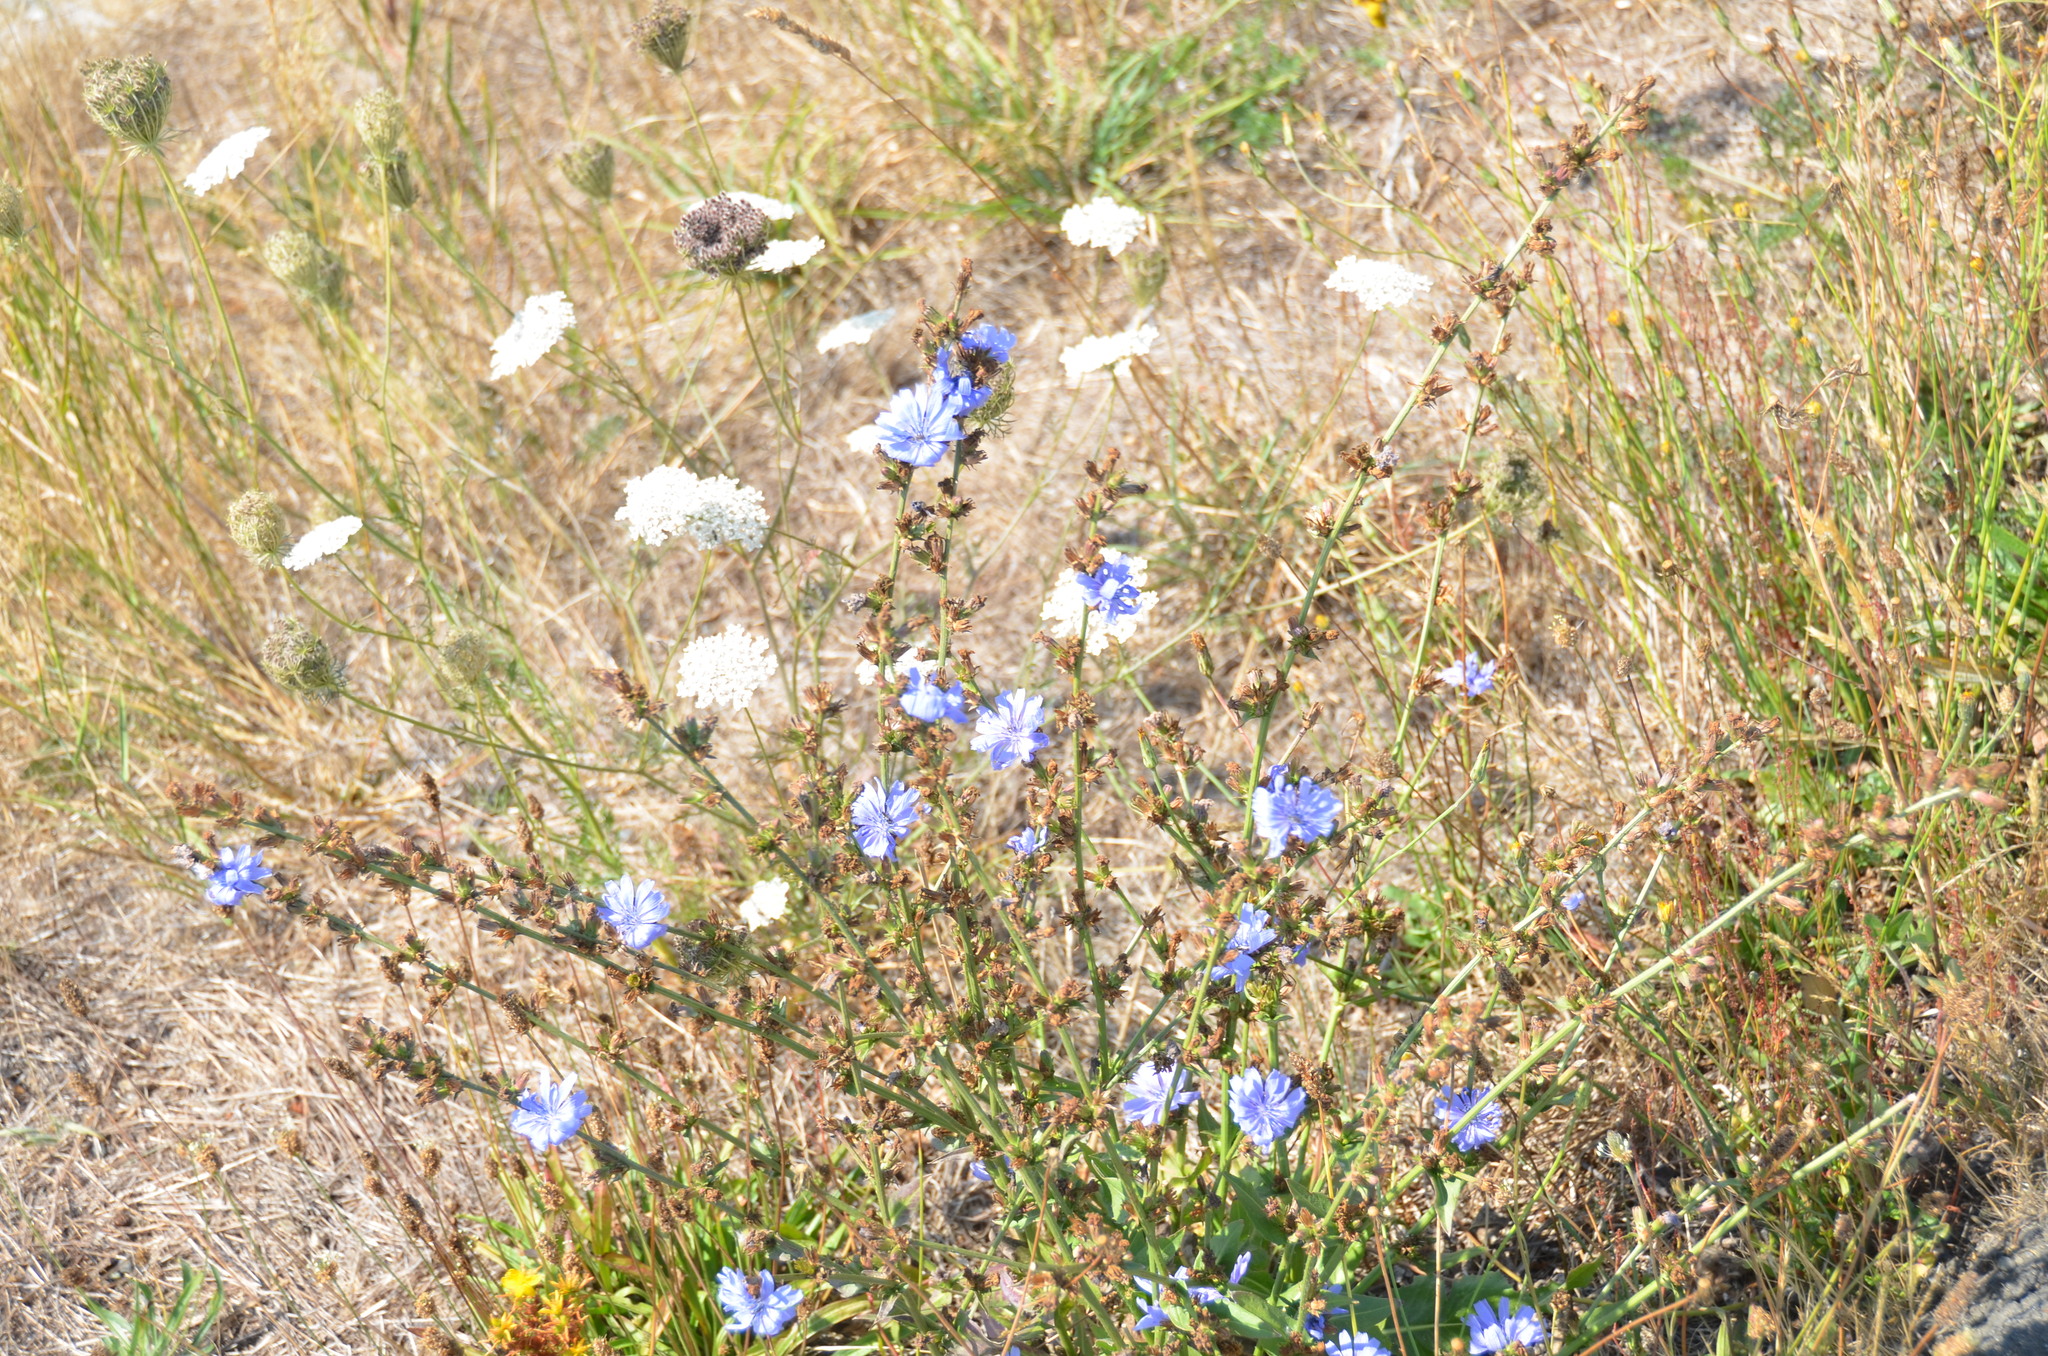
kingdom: Plantae
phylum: Tracheophyta
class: Magnoliopsida
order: Asterales
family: Asteraceae
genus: Cichorium
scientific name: Cichorium intybus
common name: Chicory
